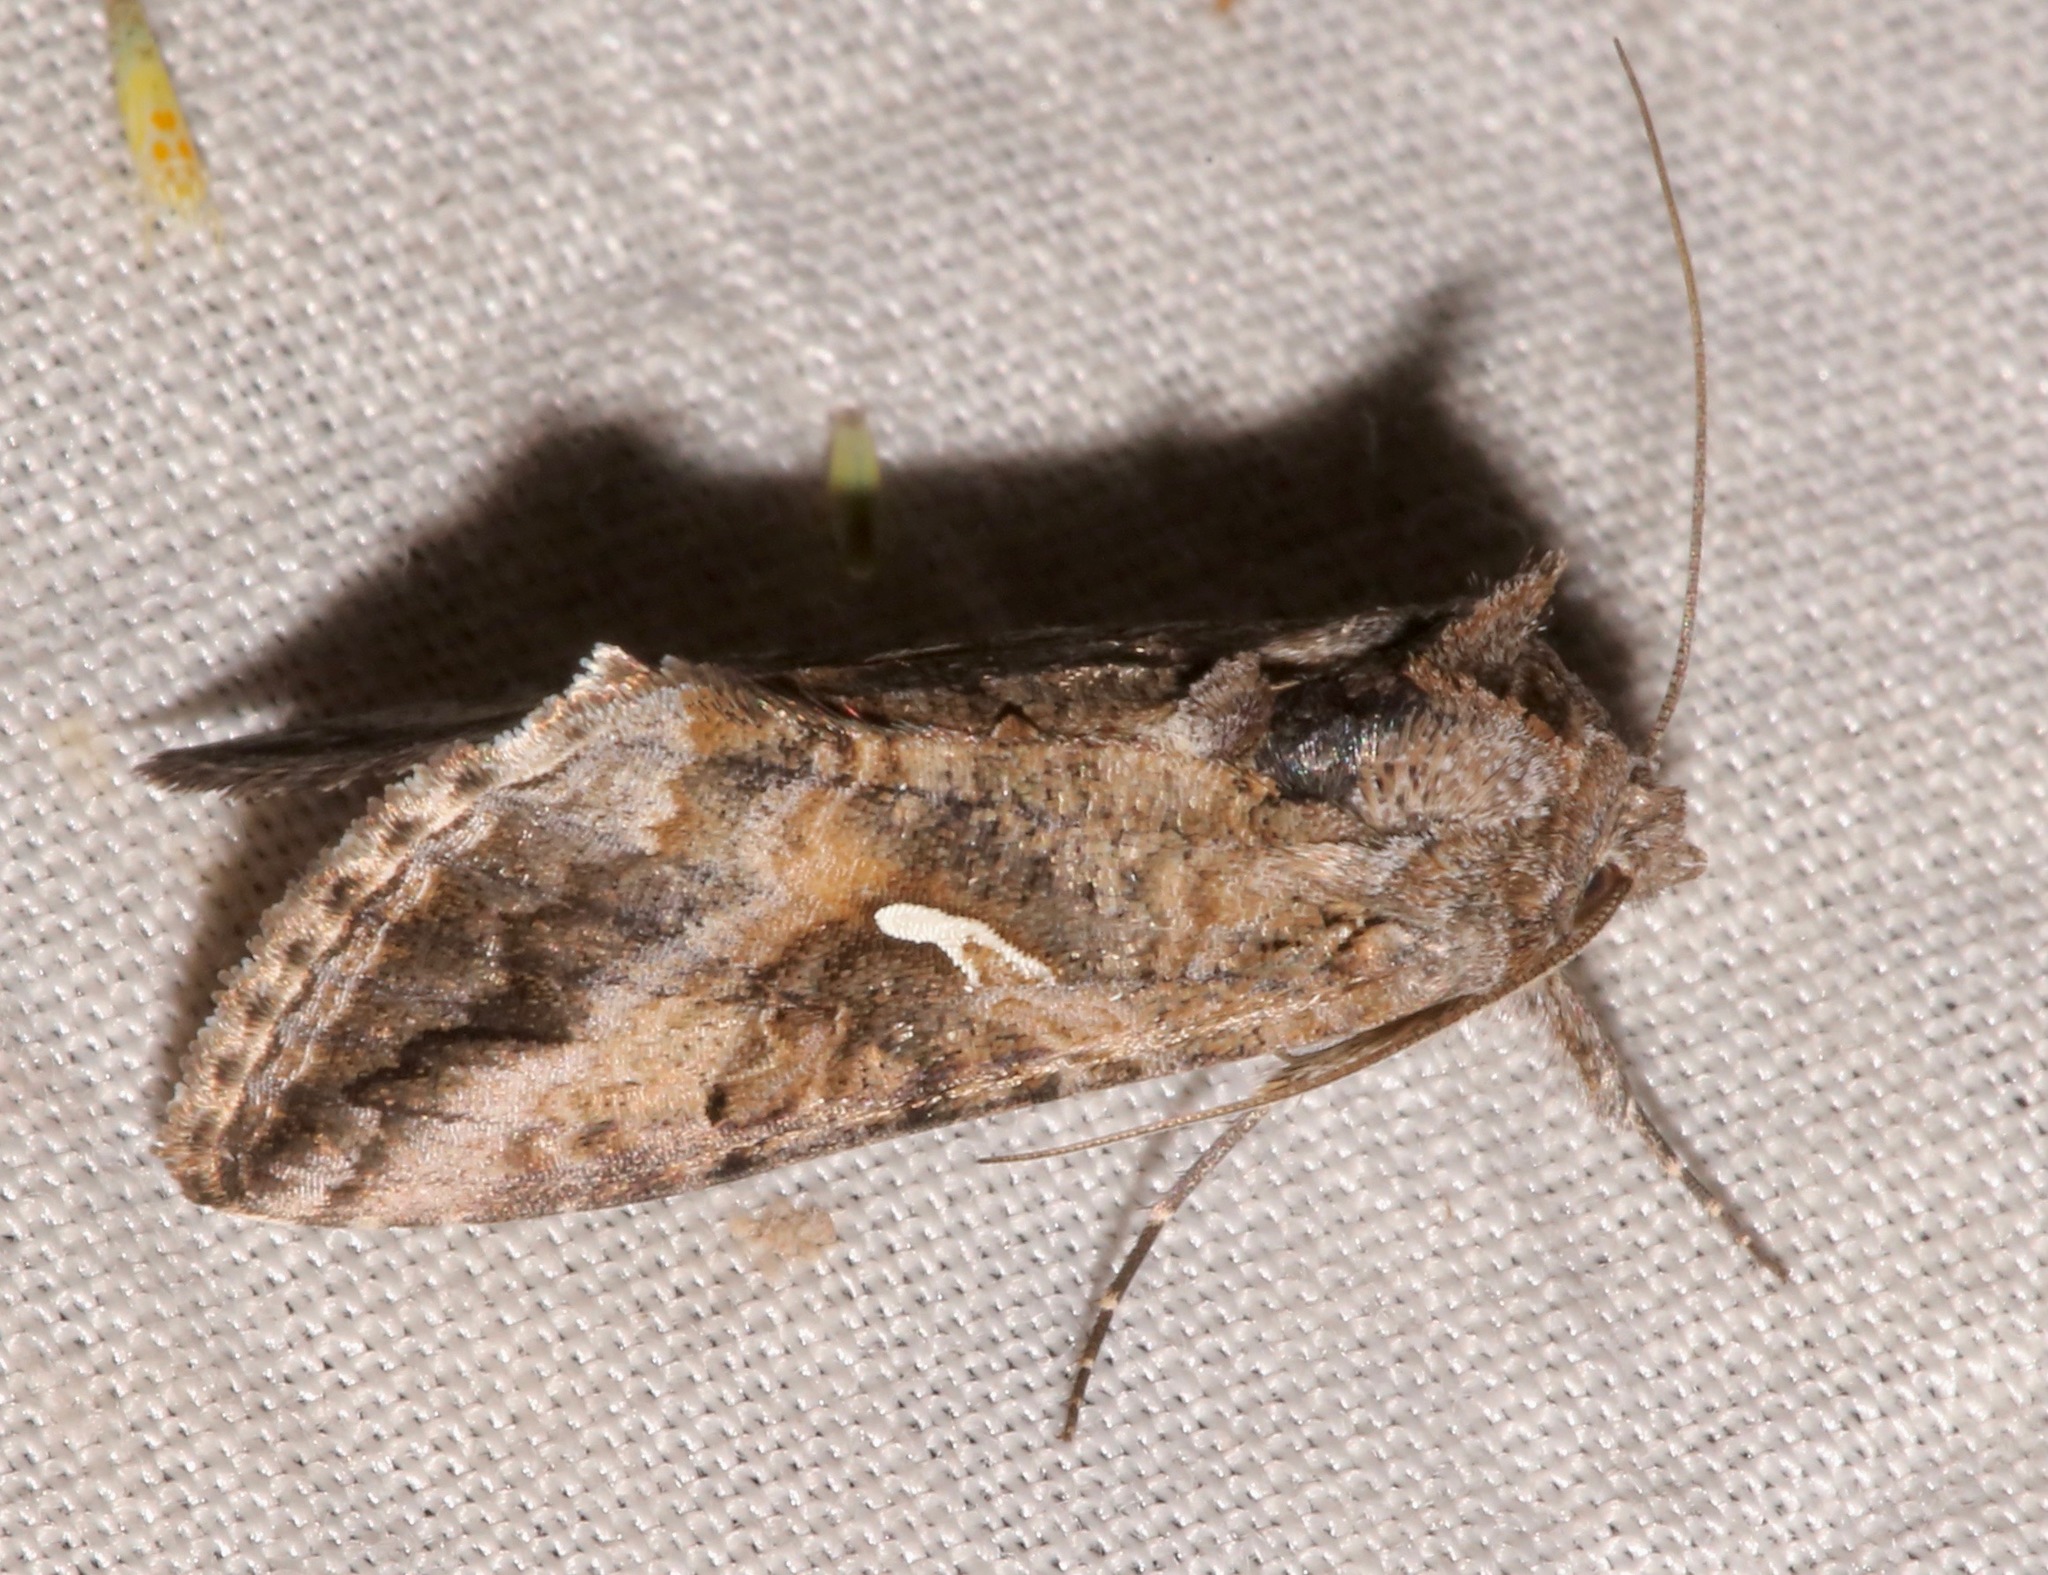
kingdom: Animalia
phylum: Arthropoda
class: Insecta
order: Lepidoptera
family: Noctuidae
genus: Rachiplusia
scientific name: Rachiplusia ou
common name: Gray looper moth
